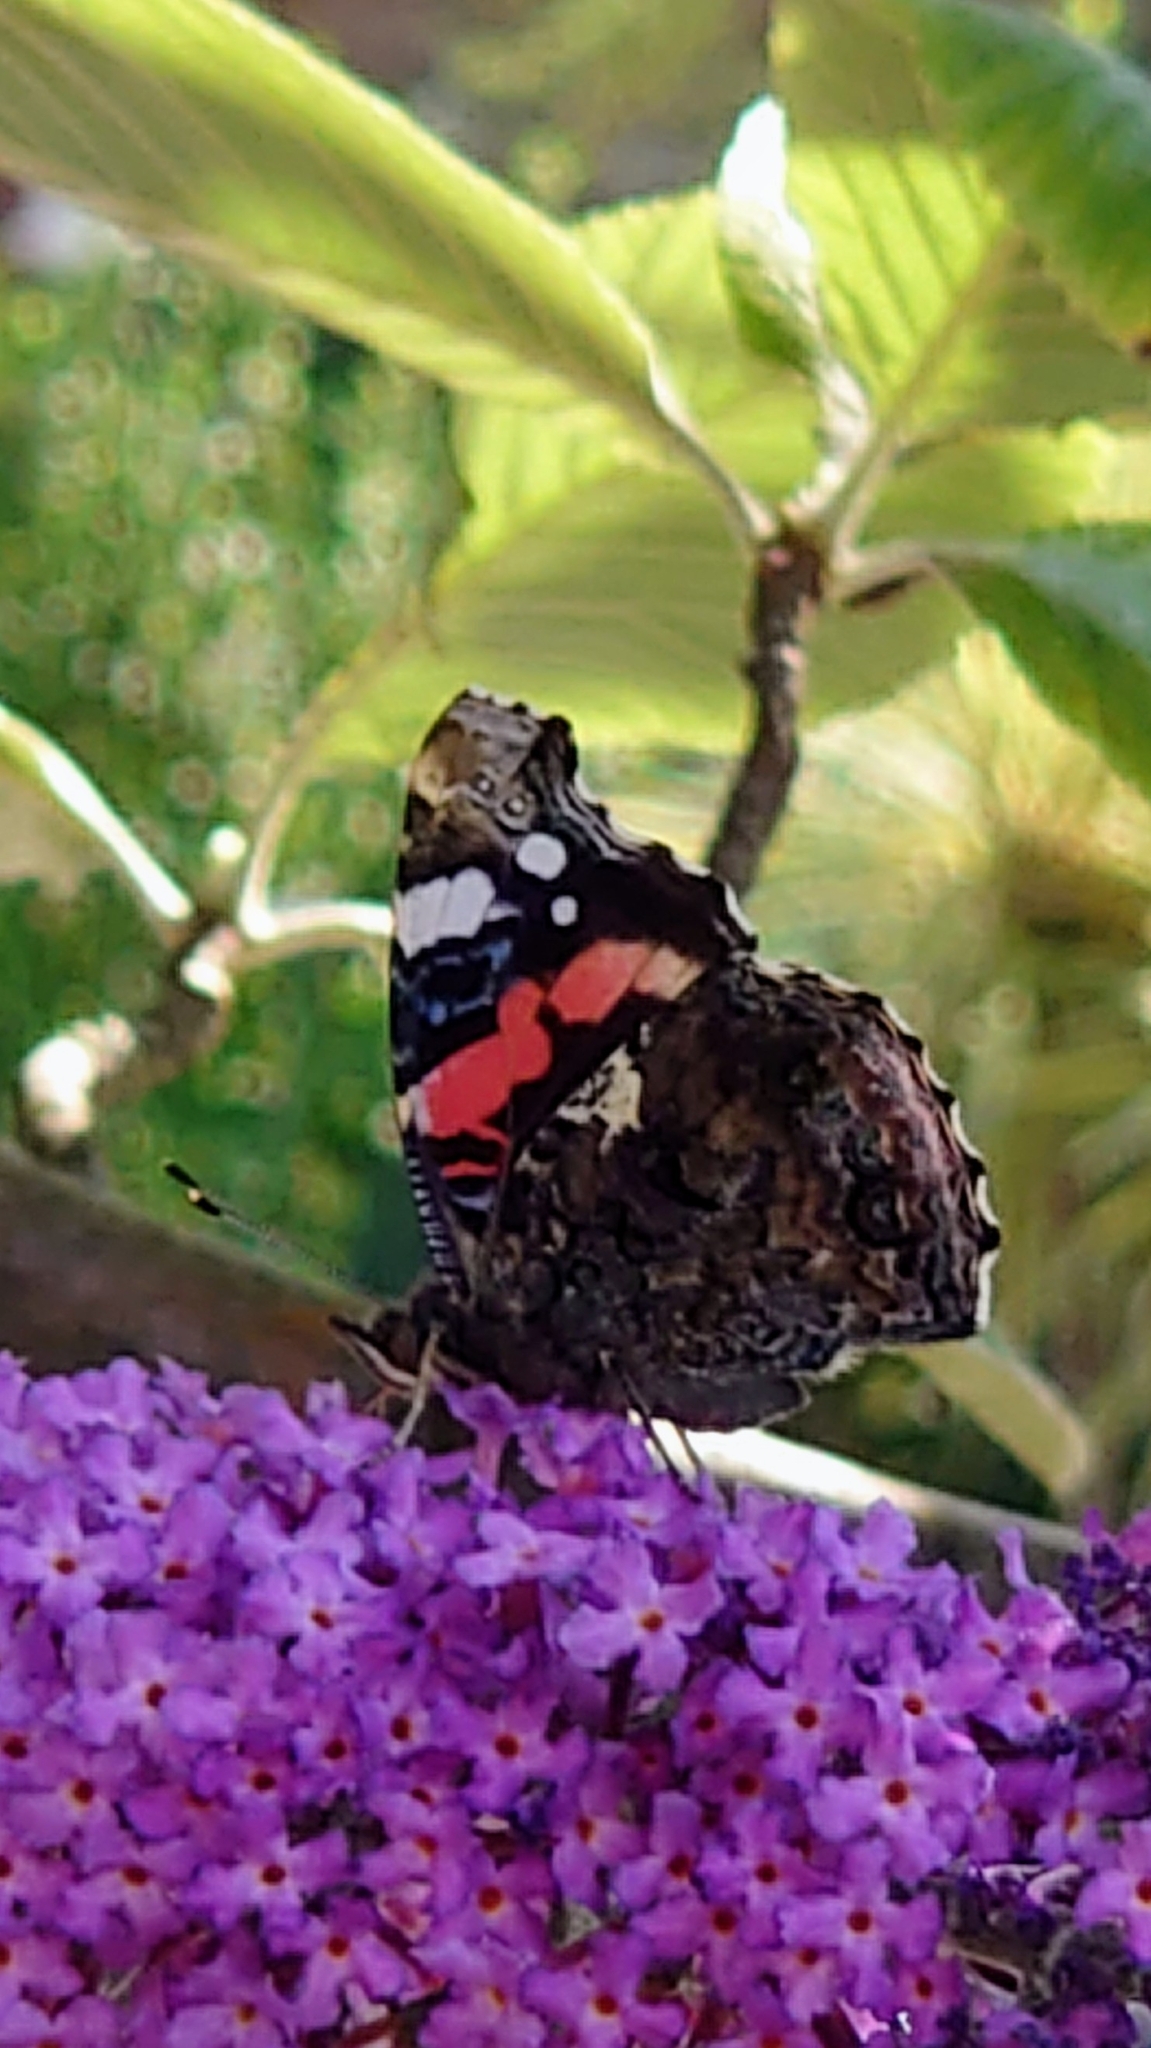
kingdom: Animalia
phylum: Arthropoda
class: Insecta
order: Lepidoptera
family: Nymphalidae
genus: Vanessa
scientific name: Vanessa atalanta
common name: Red admiral
